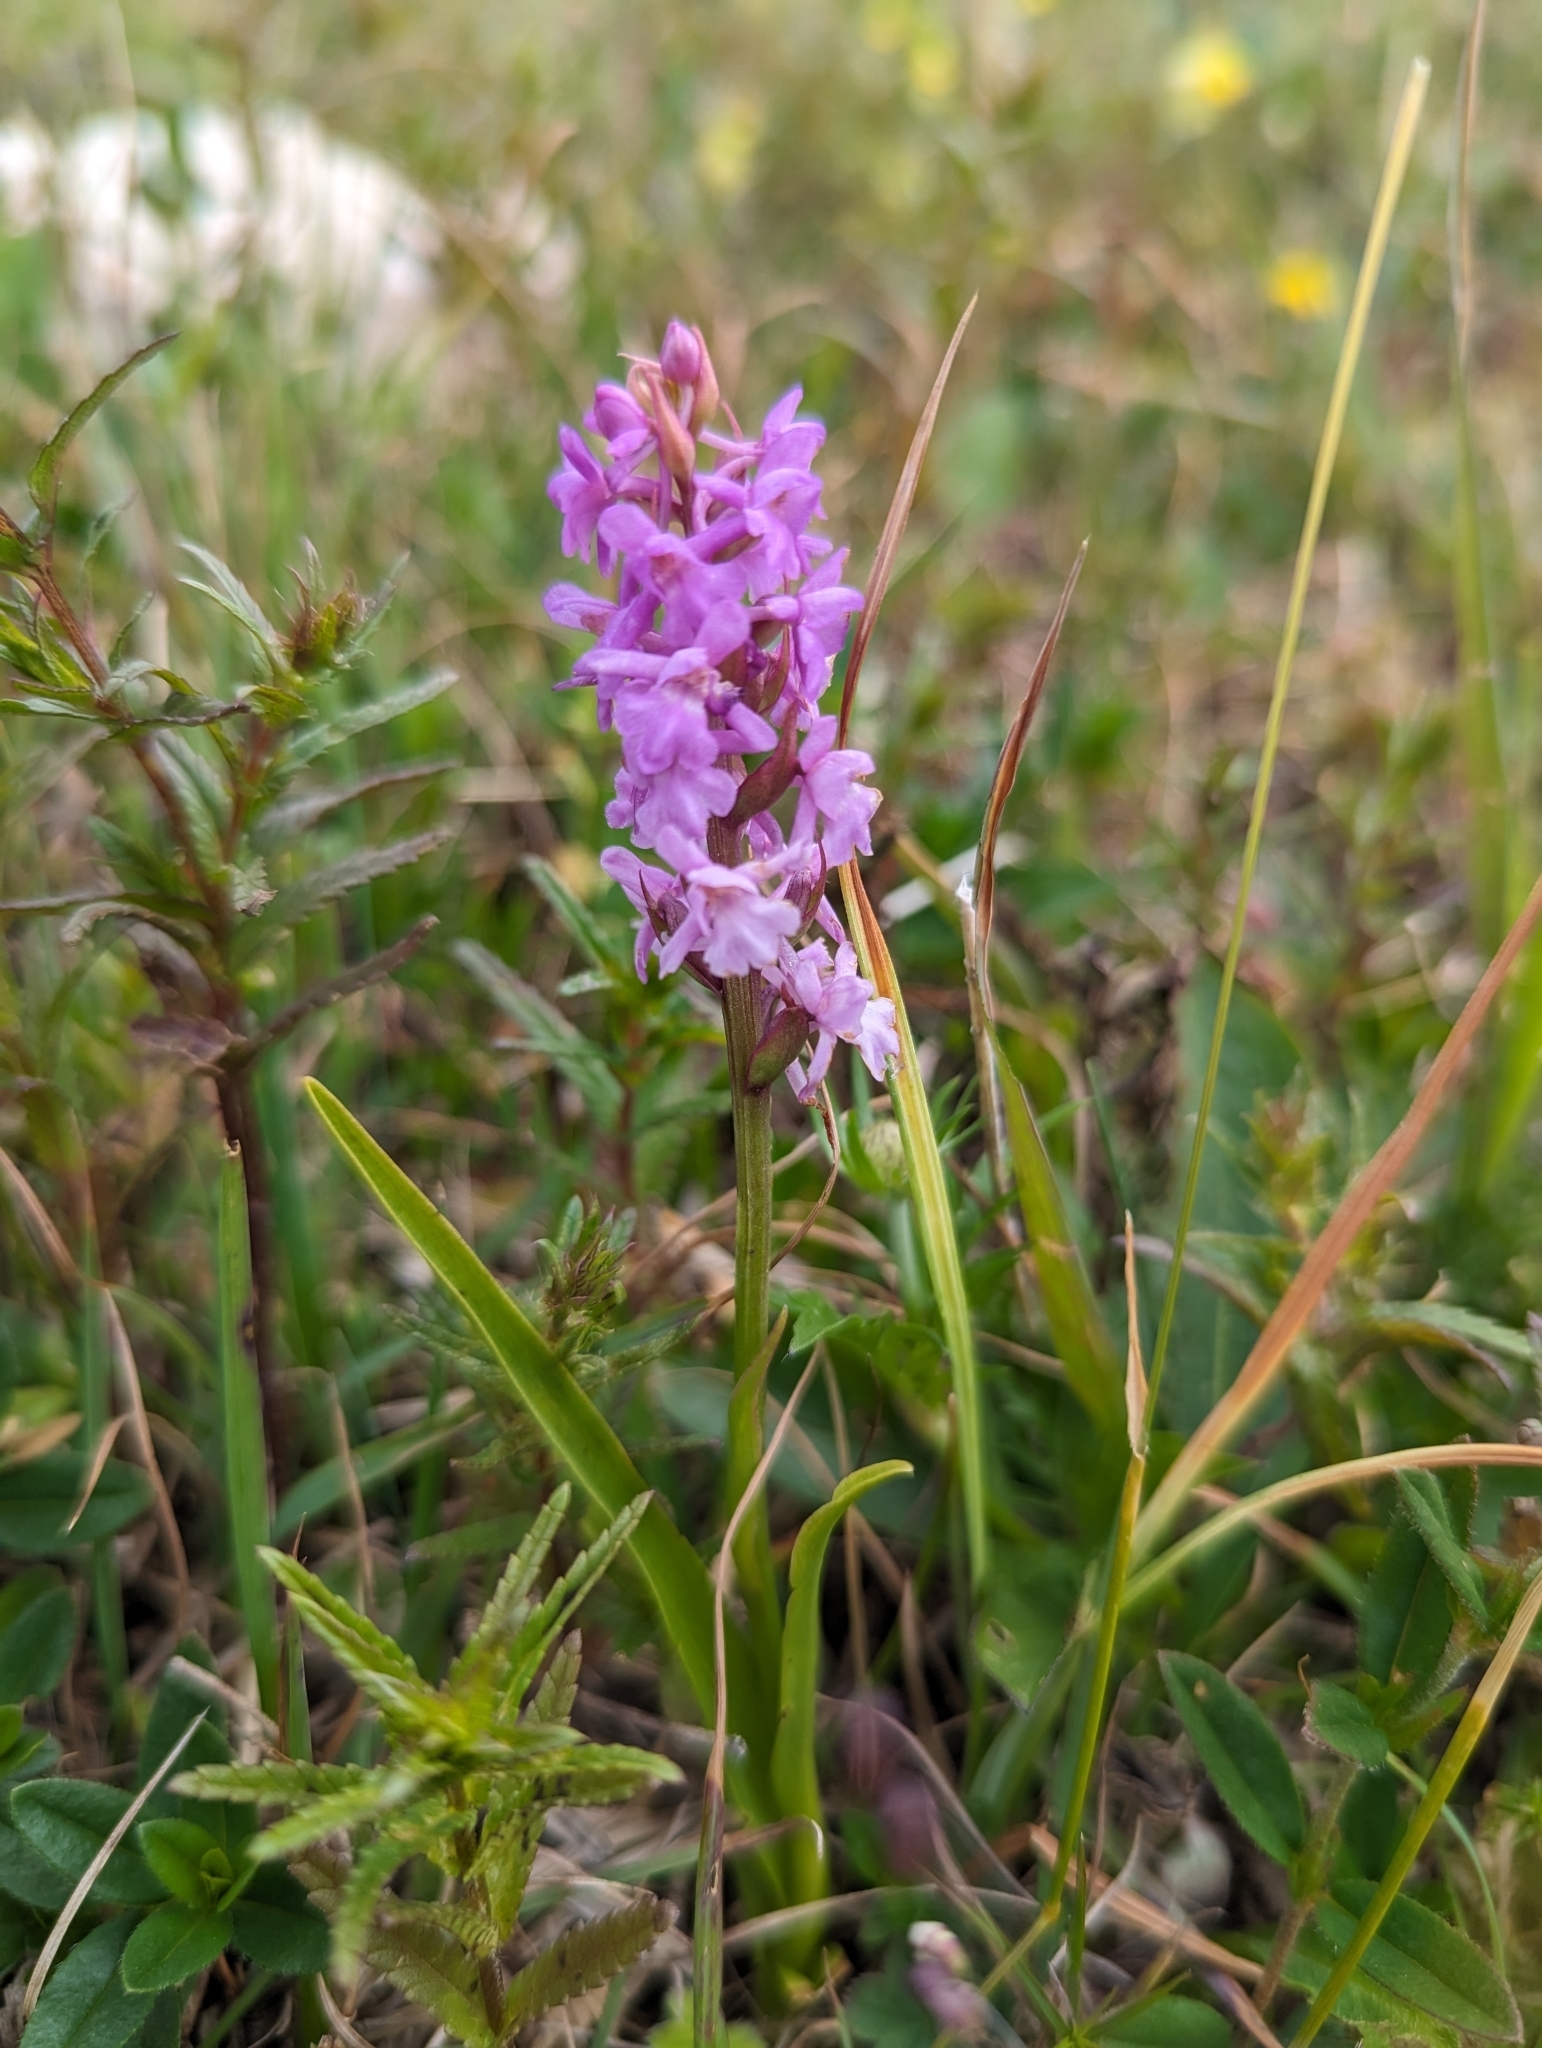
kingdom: Plantae
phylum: Tracheophyta
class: Liliopsida
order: Asparagales
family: Orchidaceae
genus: Gymnadenia
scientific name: Gymnadenia conopsea
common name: Fragrant orchid
